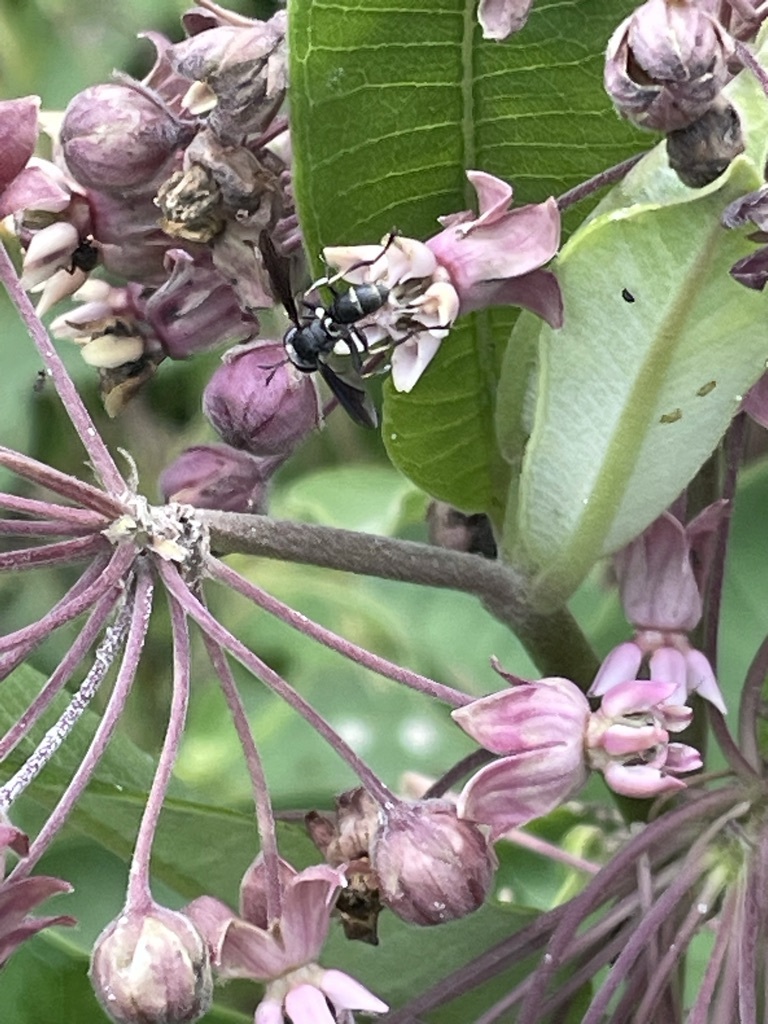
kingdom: Animalia
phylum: Arthropoda
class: Insecta
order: Diptera
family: Conopidae
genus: Physocephala
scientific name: Physocephala tibialis
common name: Common eastern physocephala
